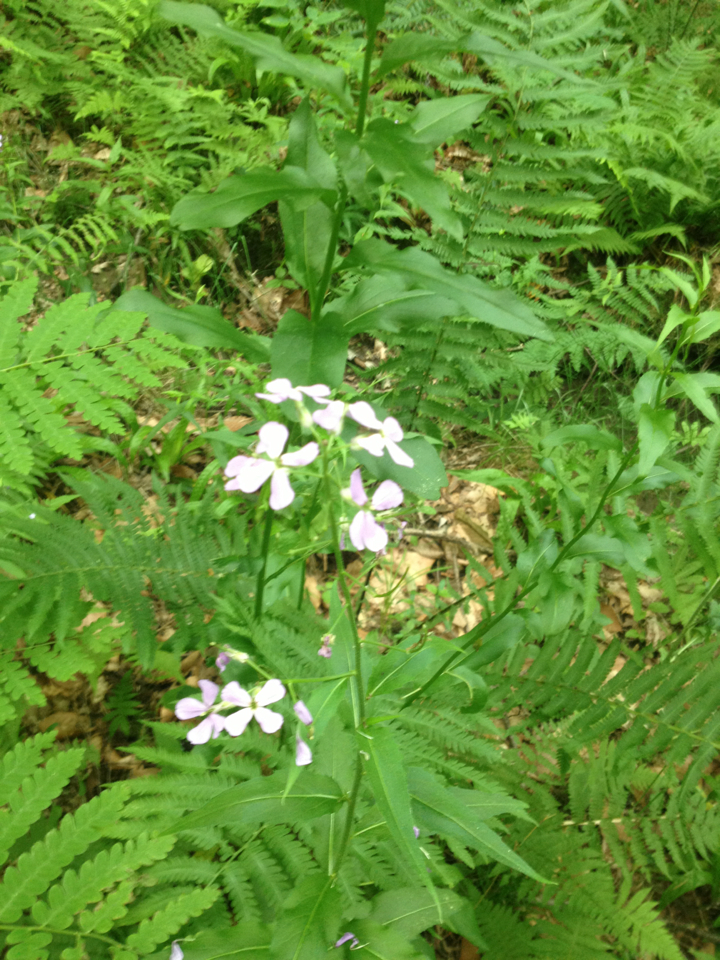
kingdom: Plantae
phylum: Tracheophyta
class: Magnoliopsida
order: Brassicales
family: Brassicaceae
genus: Hesperis
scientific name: Hesperis matronalis
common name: Dame's-violet
